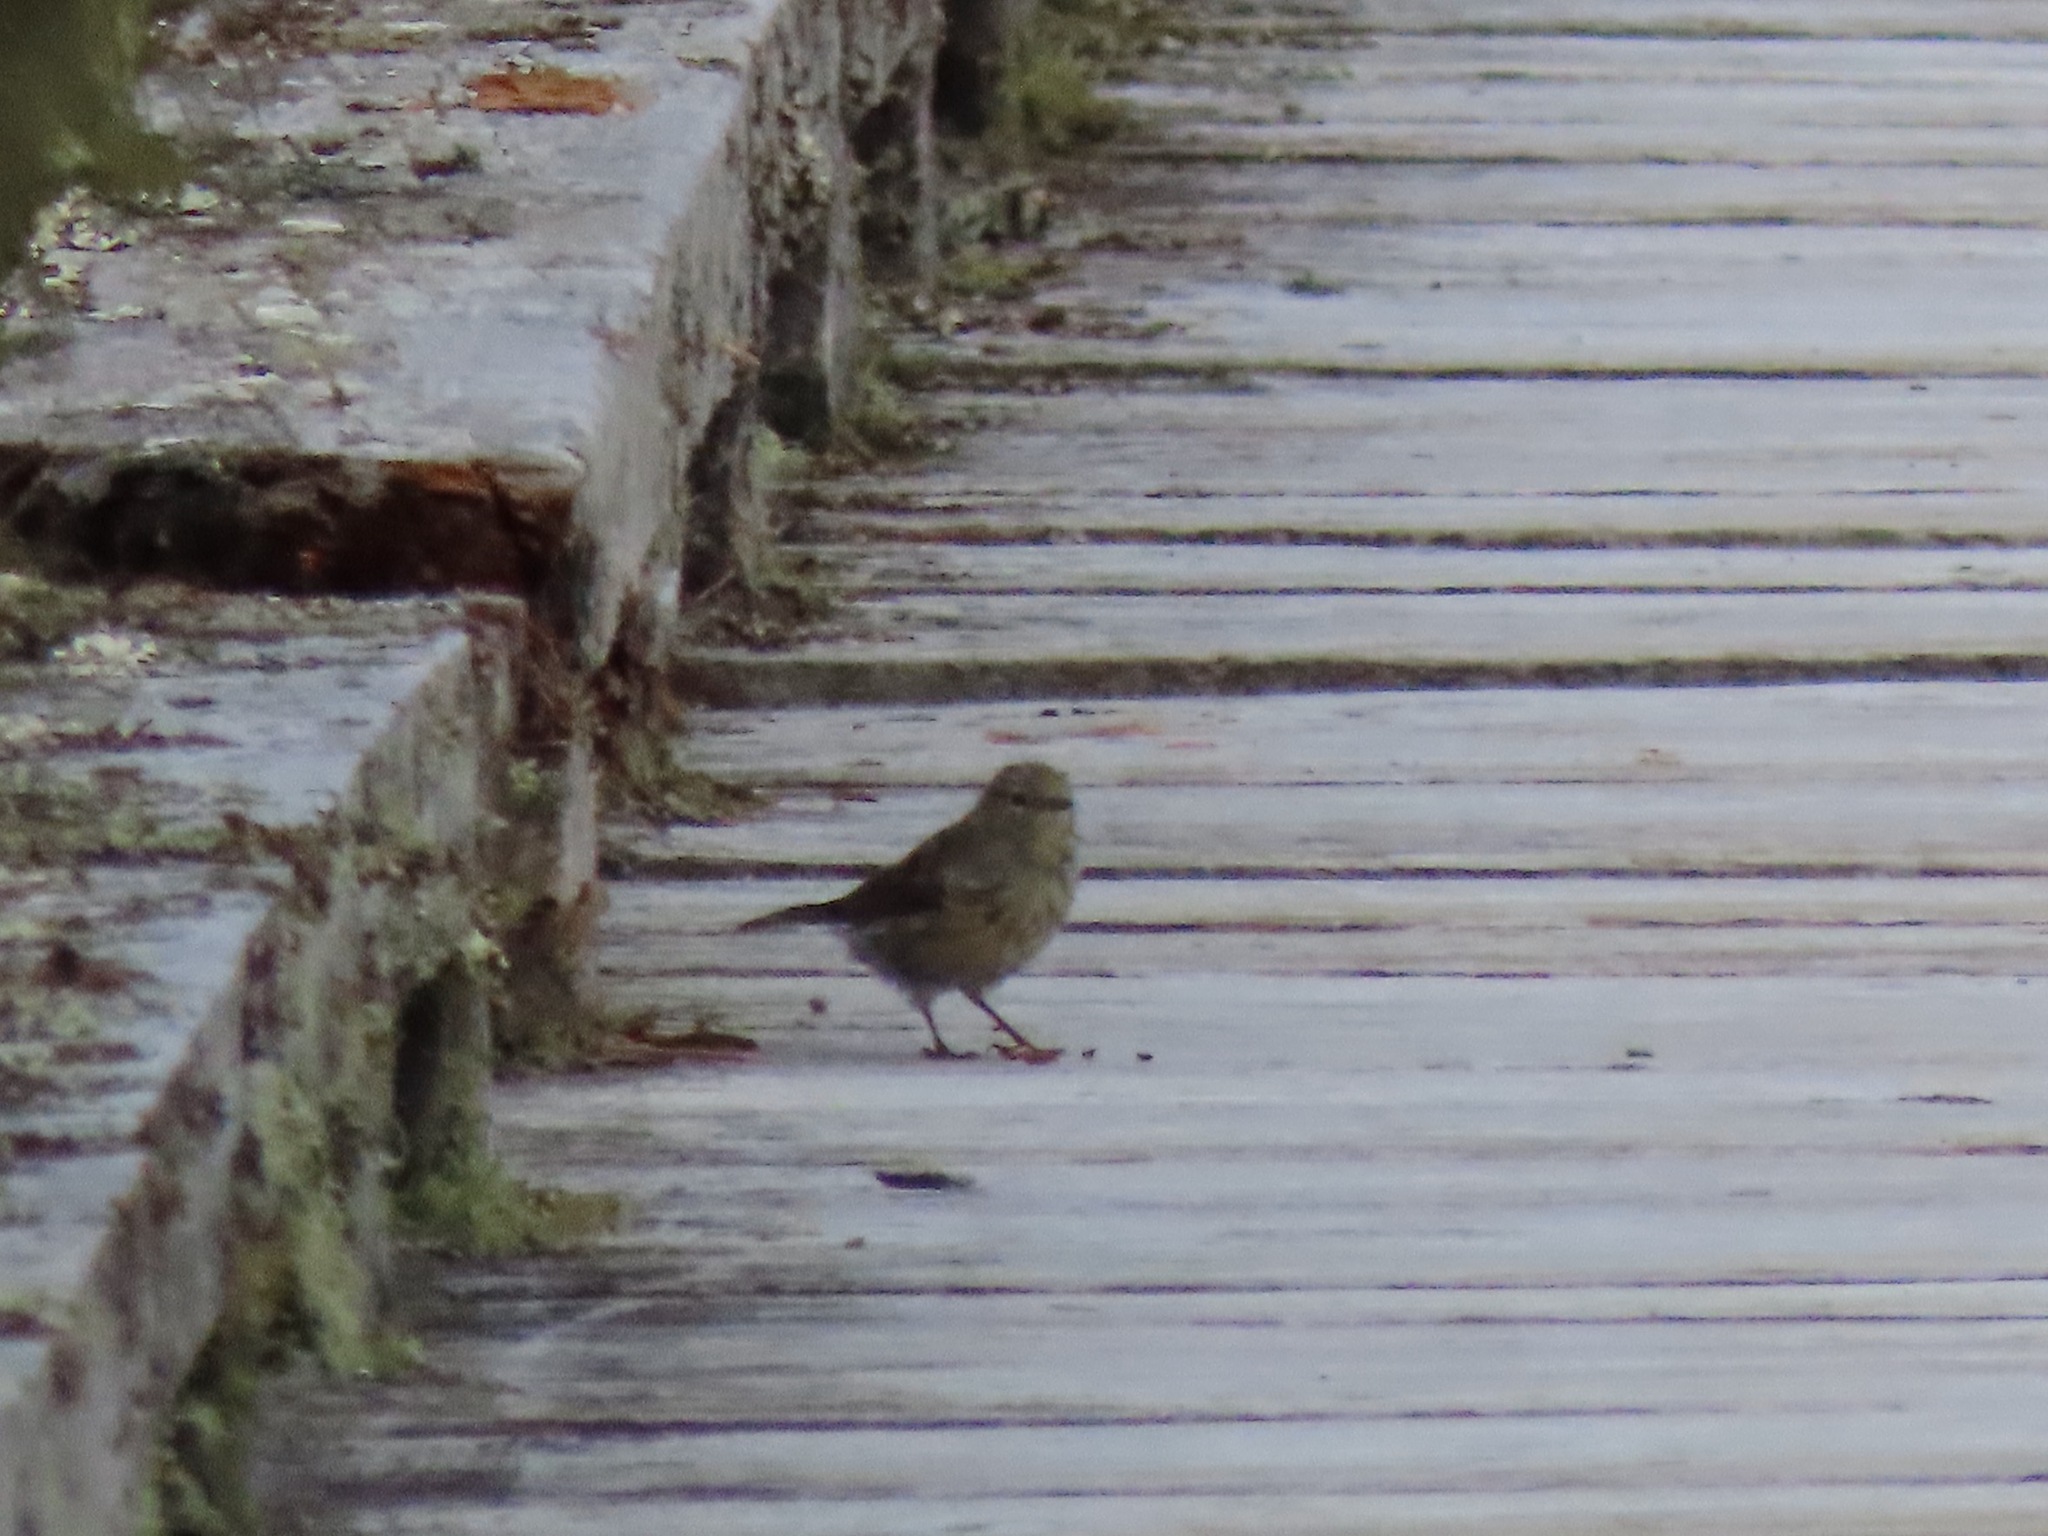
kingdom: Animalia
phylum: Chordata
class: Aves
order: Passeriformes
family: Parulidae
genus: Setophaga
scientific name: Setophaga coronata
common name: Myrtle warbler
